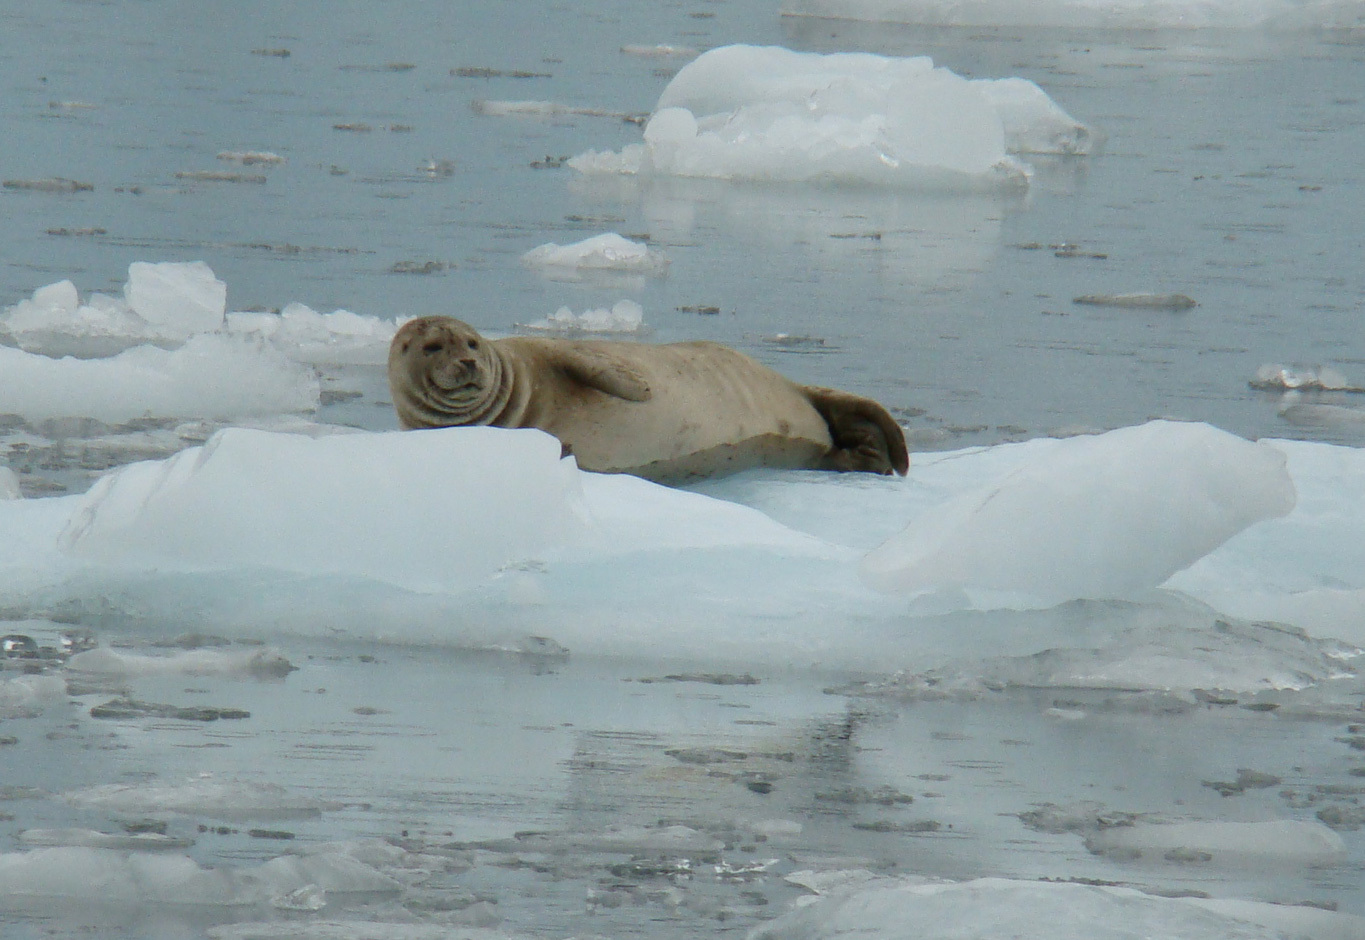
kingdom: Animalia
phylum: Chordata
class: Mammalia
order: Carnivora
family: Phocidae
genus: Phoca
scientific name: Phoca vitulina
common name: Harbor seal
